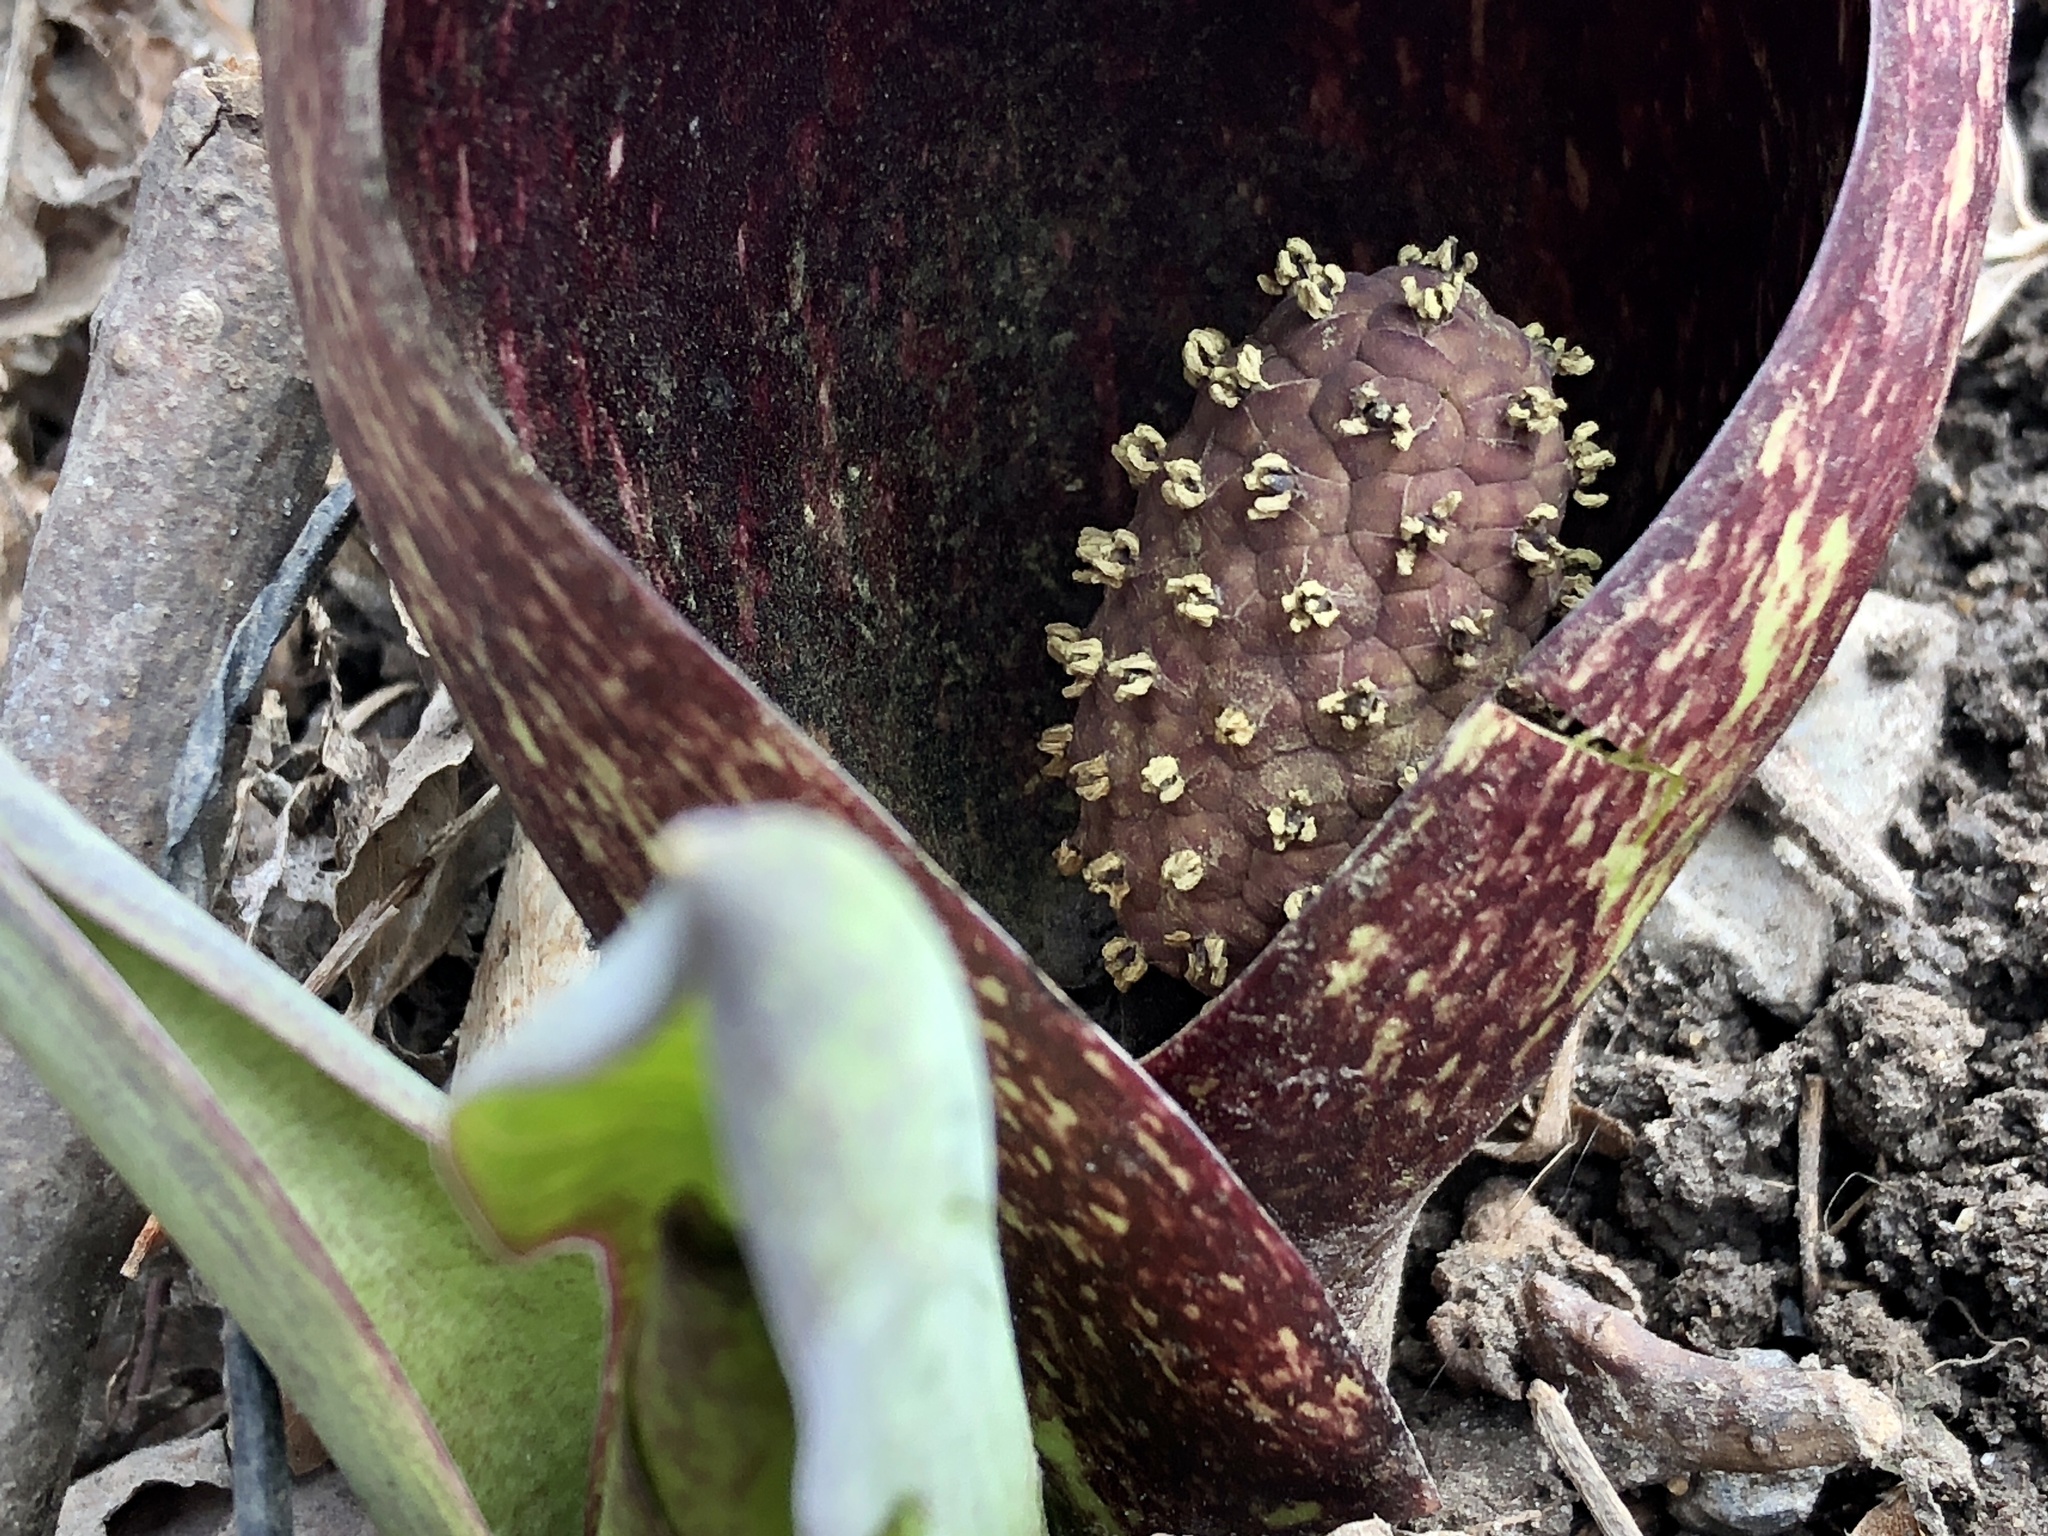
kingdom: Plantae
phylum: Tracheophyta
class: Liliopsida
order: Alismatales
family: Araceae
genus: Symplocarpus
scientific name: Symplocarpus foetidus
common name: Eastern skunk cabbage
